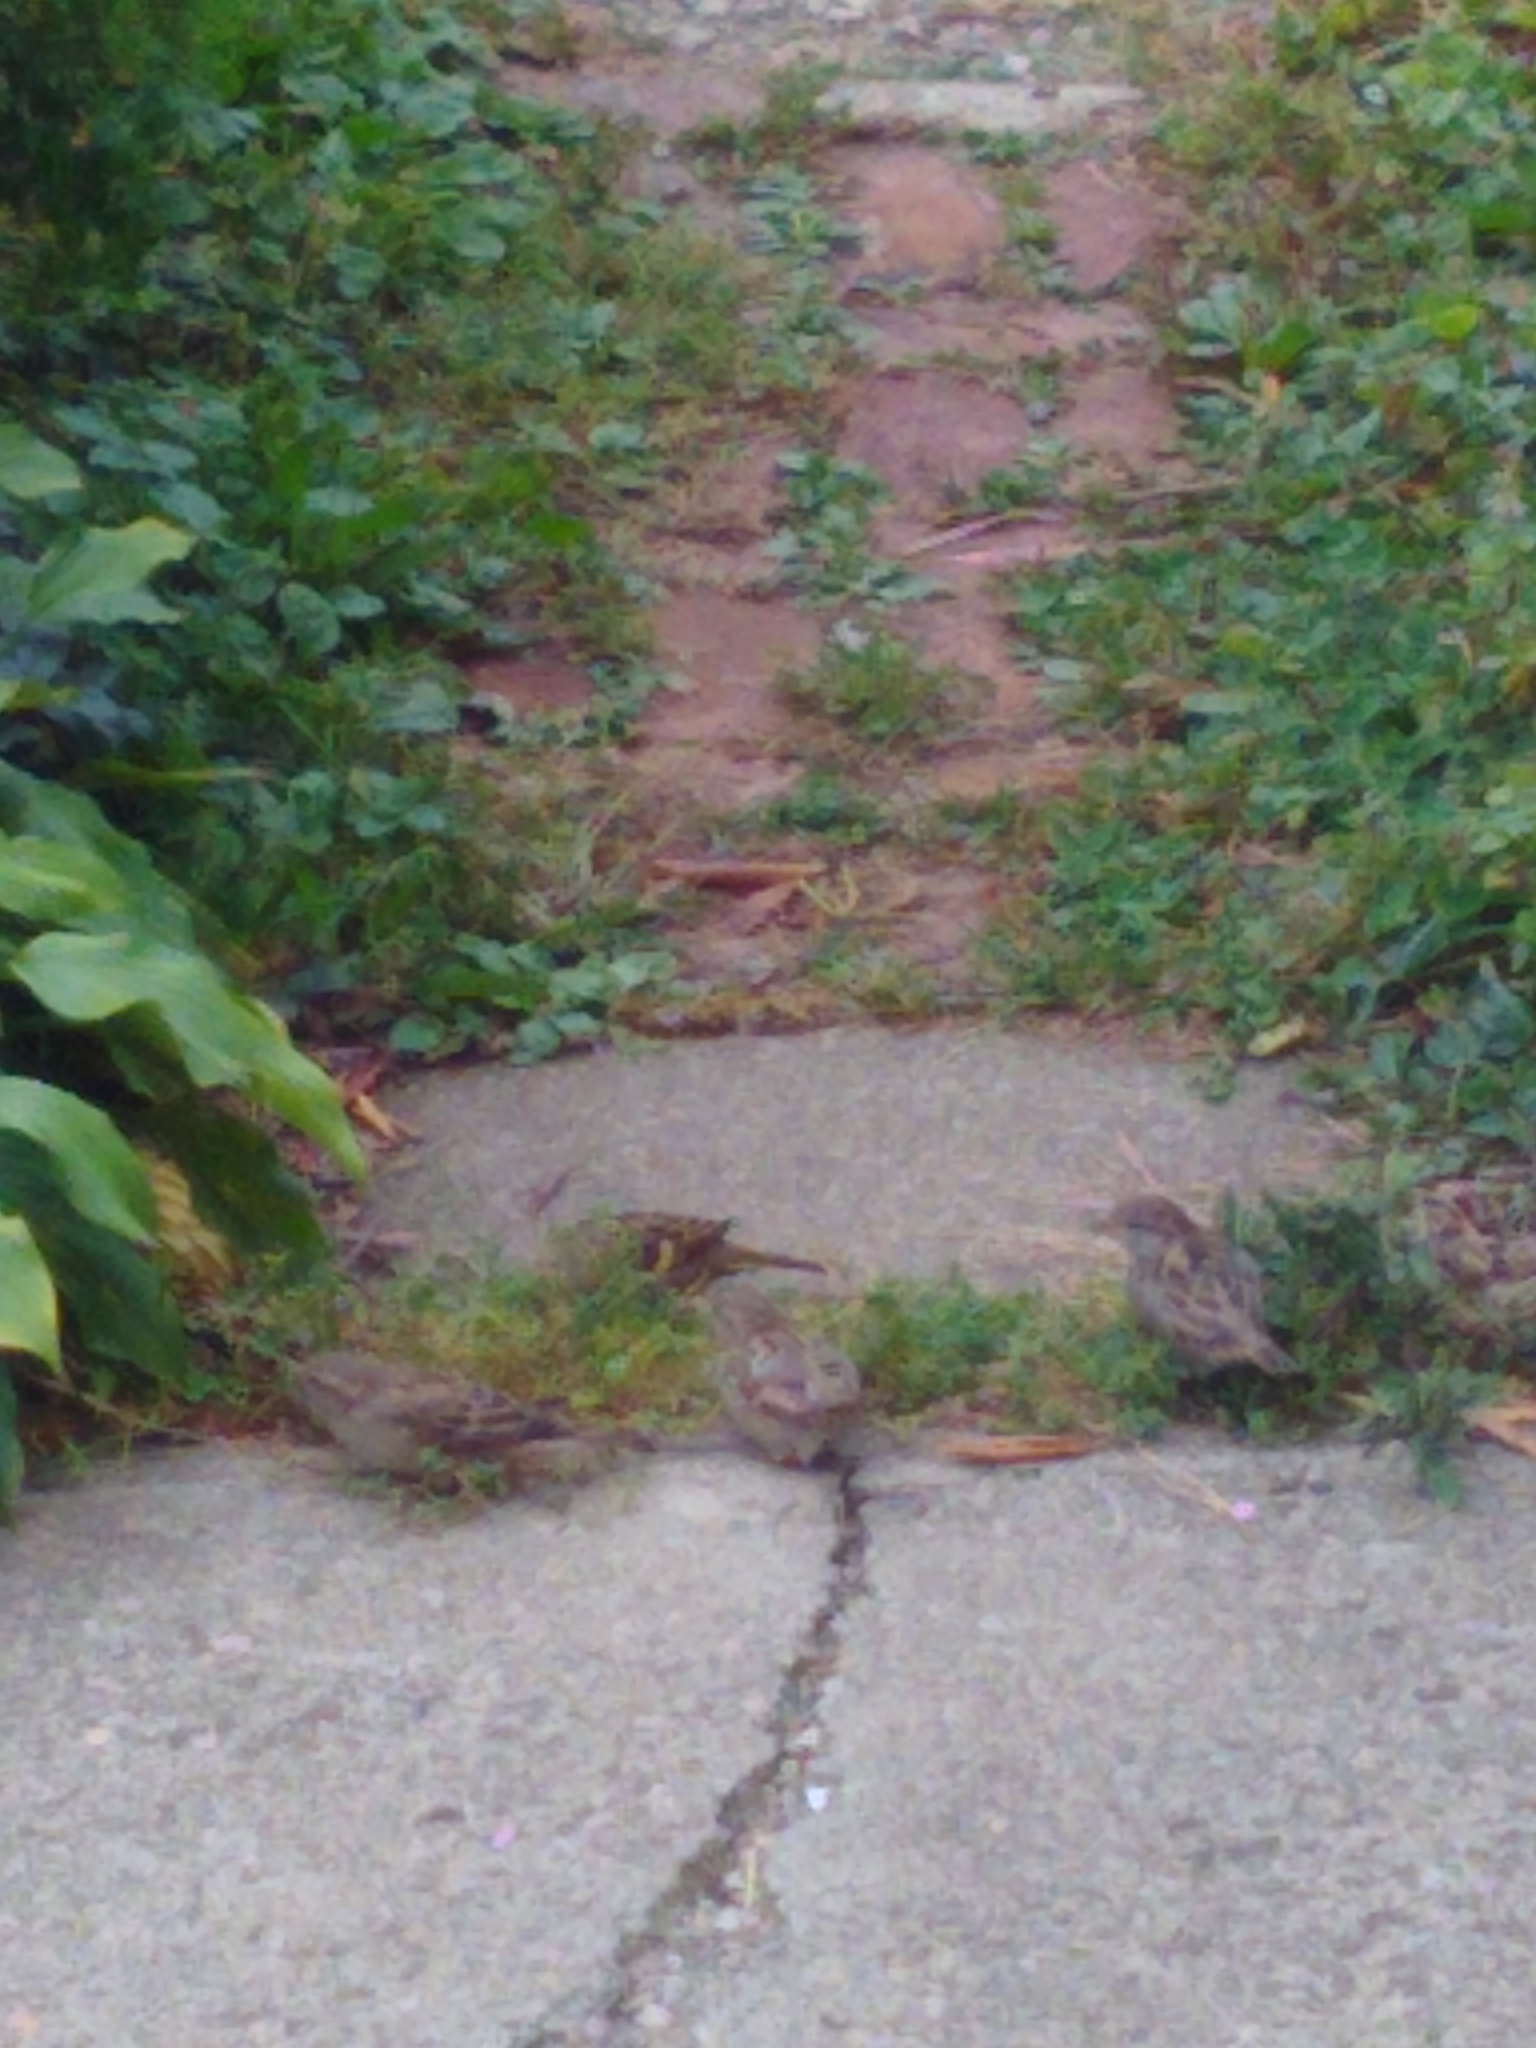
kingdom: Animalia
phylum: Chordata
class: Aves
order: Passeriformes
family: Passeridae
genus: Passer
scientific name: Passer domesticus
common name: House sparrow
